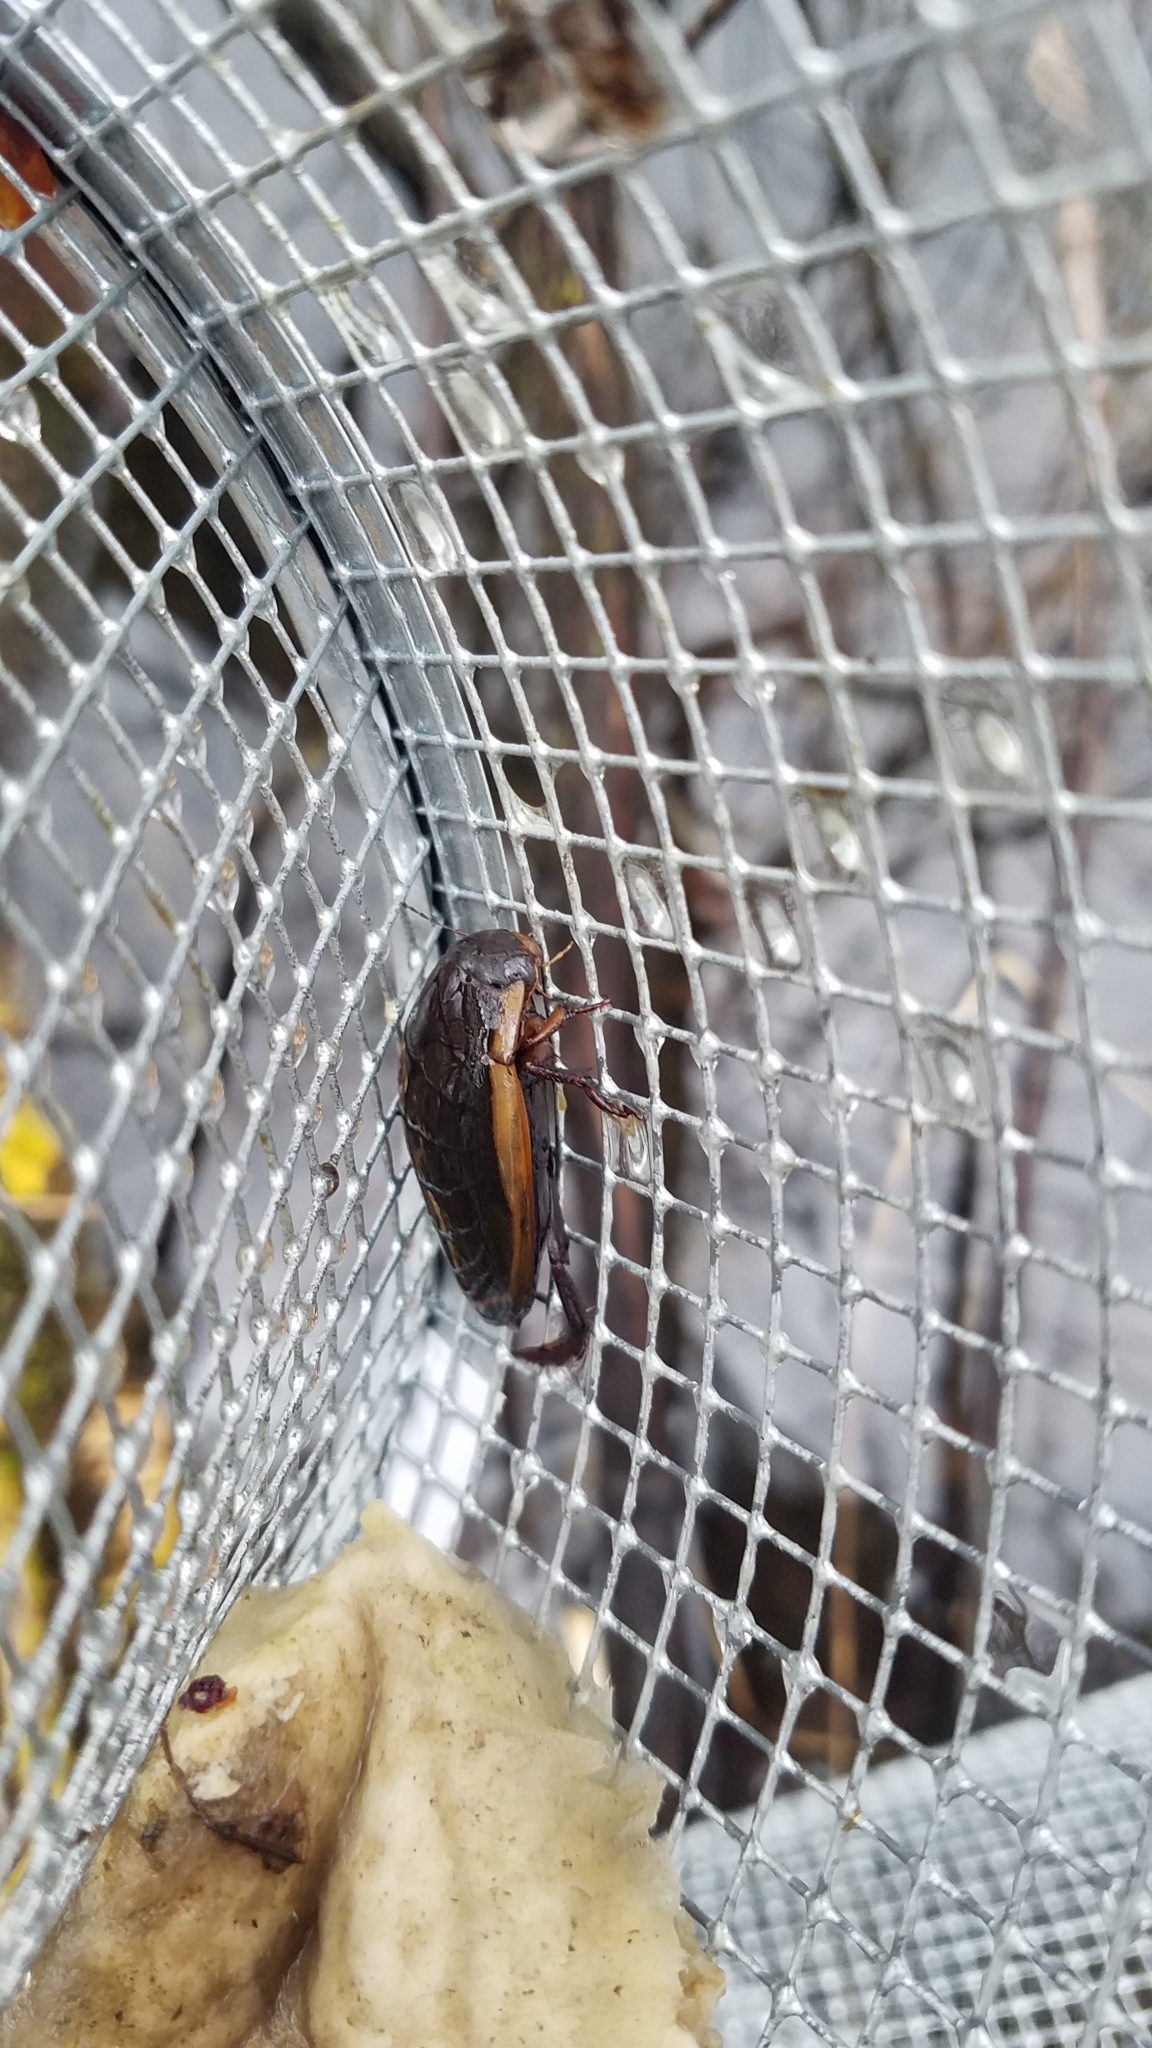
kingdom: Animalia
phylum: Arthropoda
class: Insecta
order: Coleoptera
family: Dytiscidae
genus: Dytiscus
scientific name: Dytiscus verticalis
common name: Vertical diving beetle
